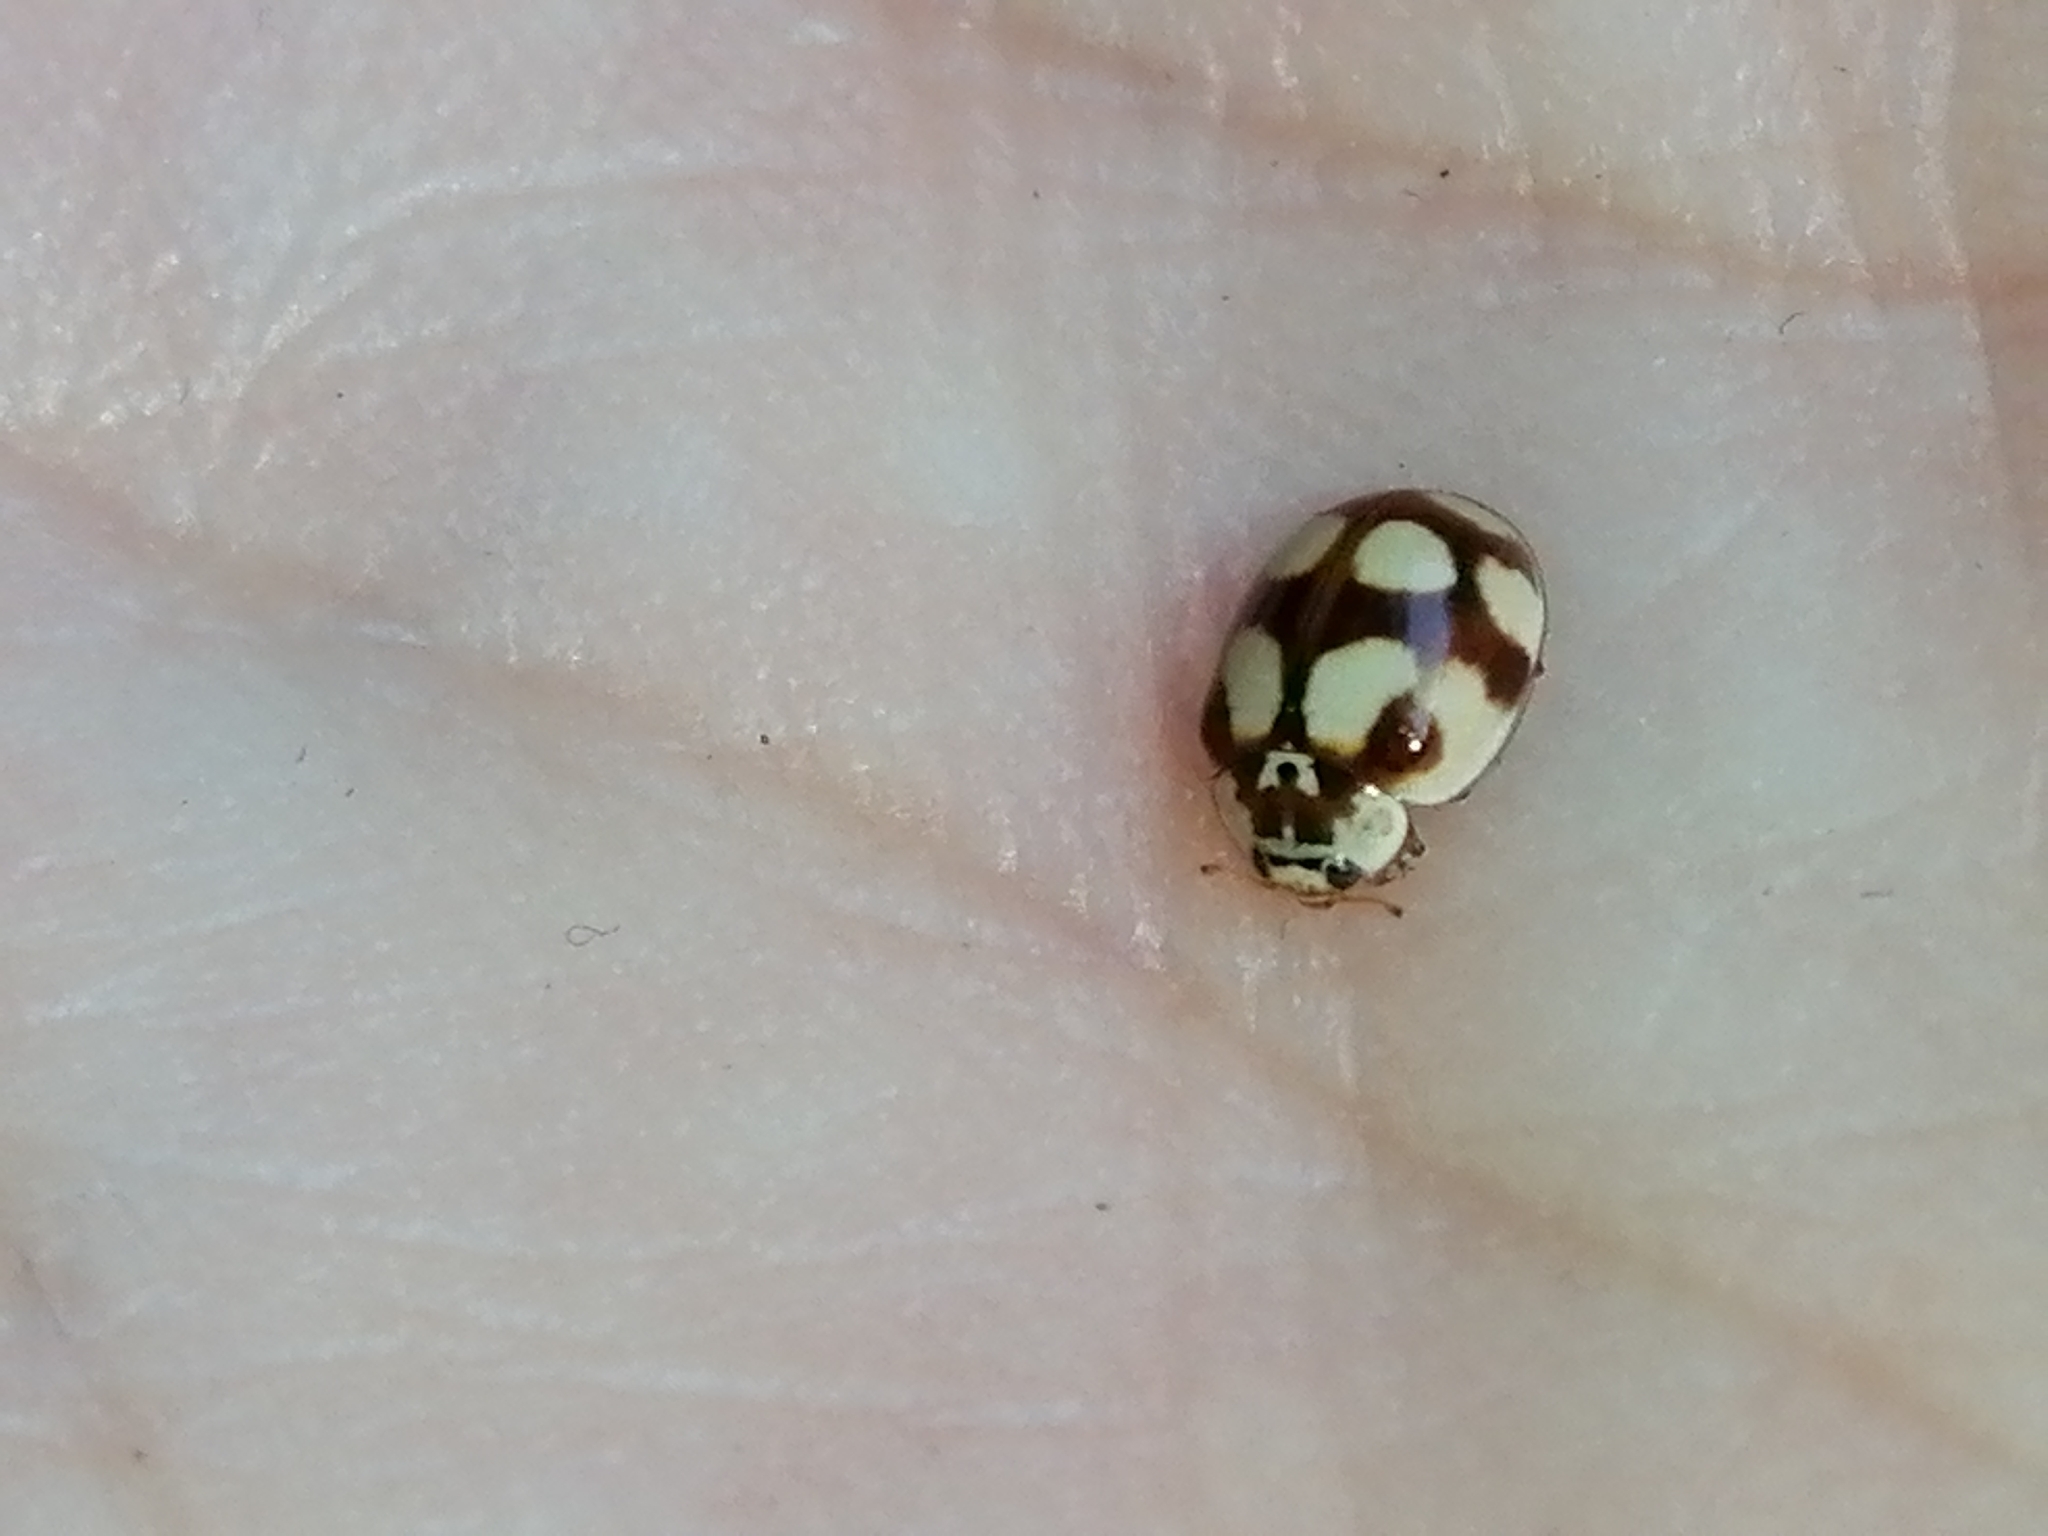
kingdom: Animalia
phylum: Arthropoda
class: Insecta
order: Coleoptera
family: Coccinellidae
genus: Adalia
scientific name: Adalia decempunctata
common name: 10-spot ladybird
